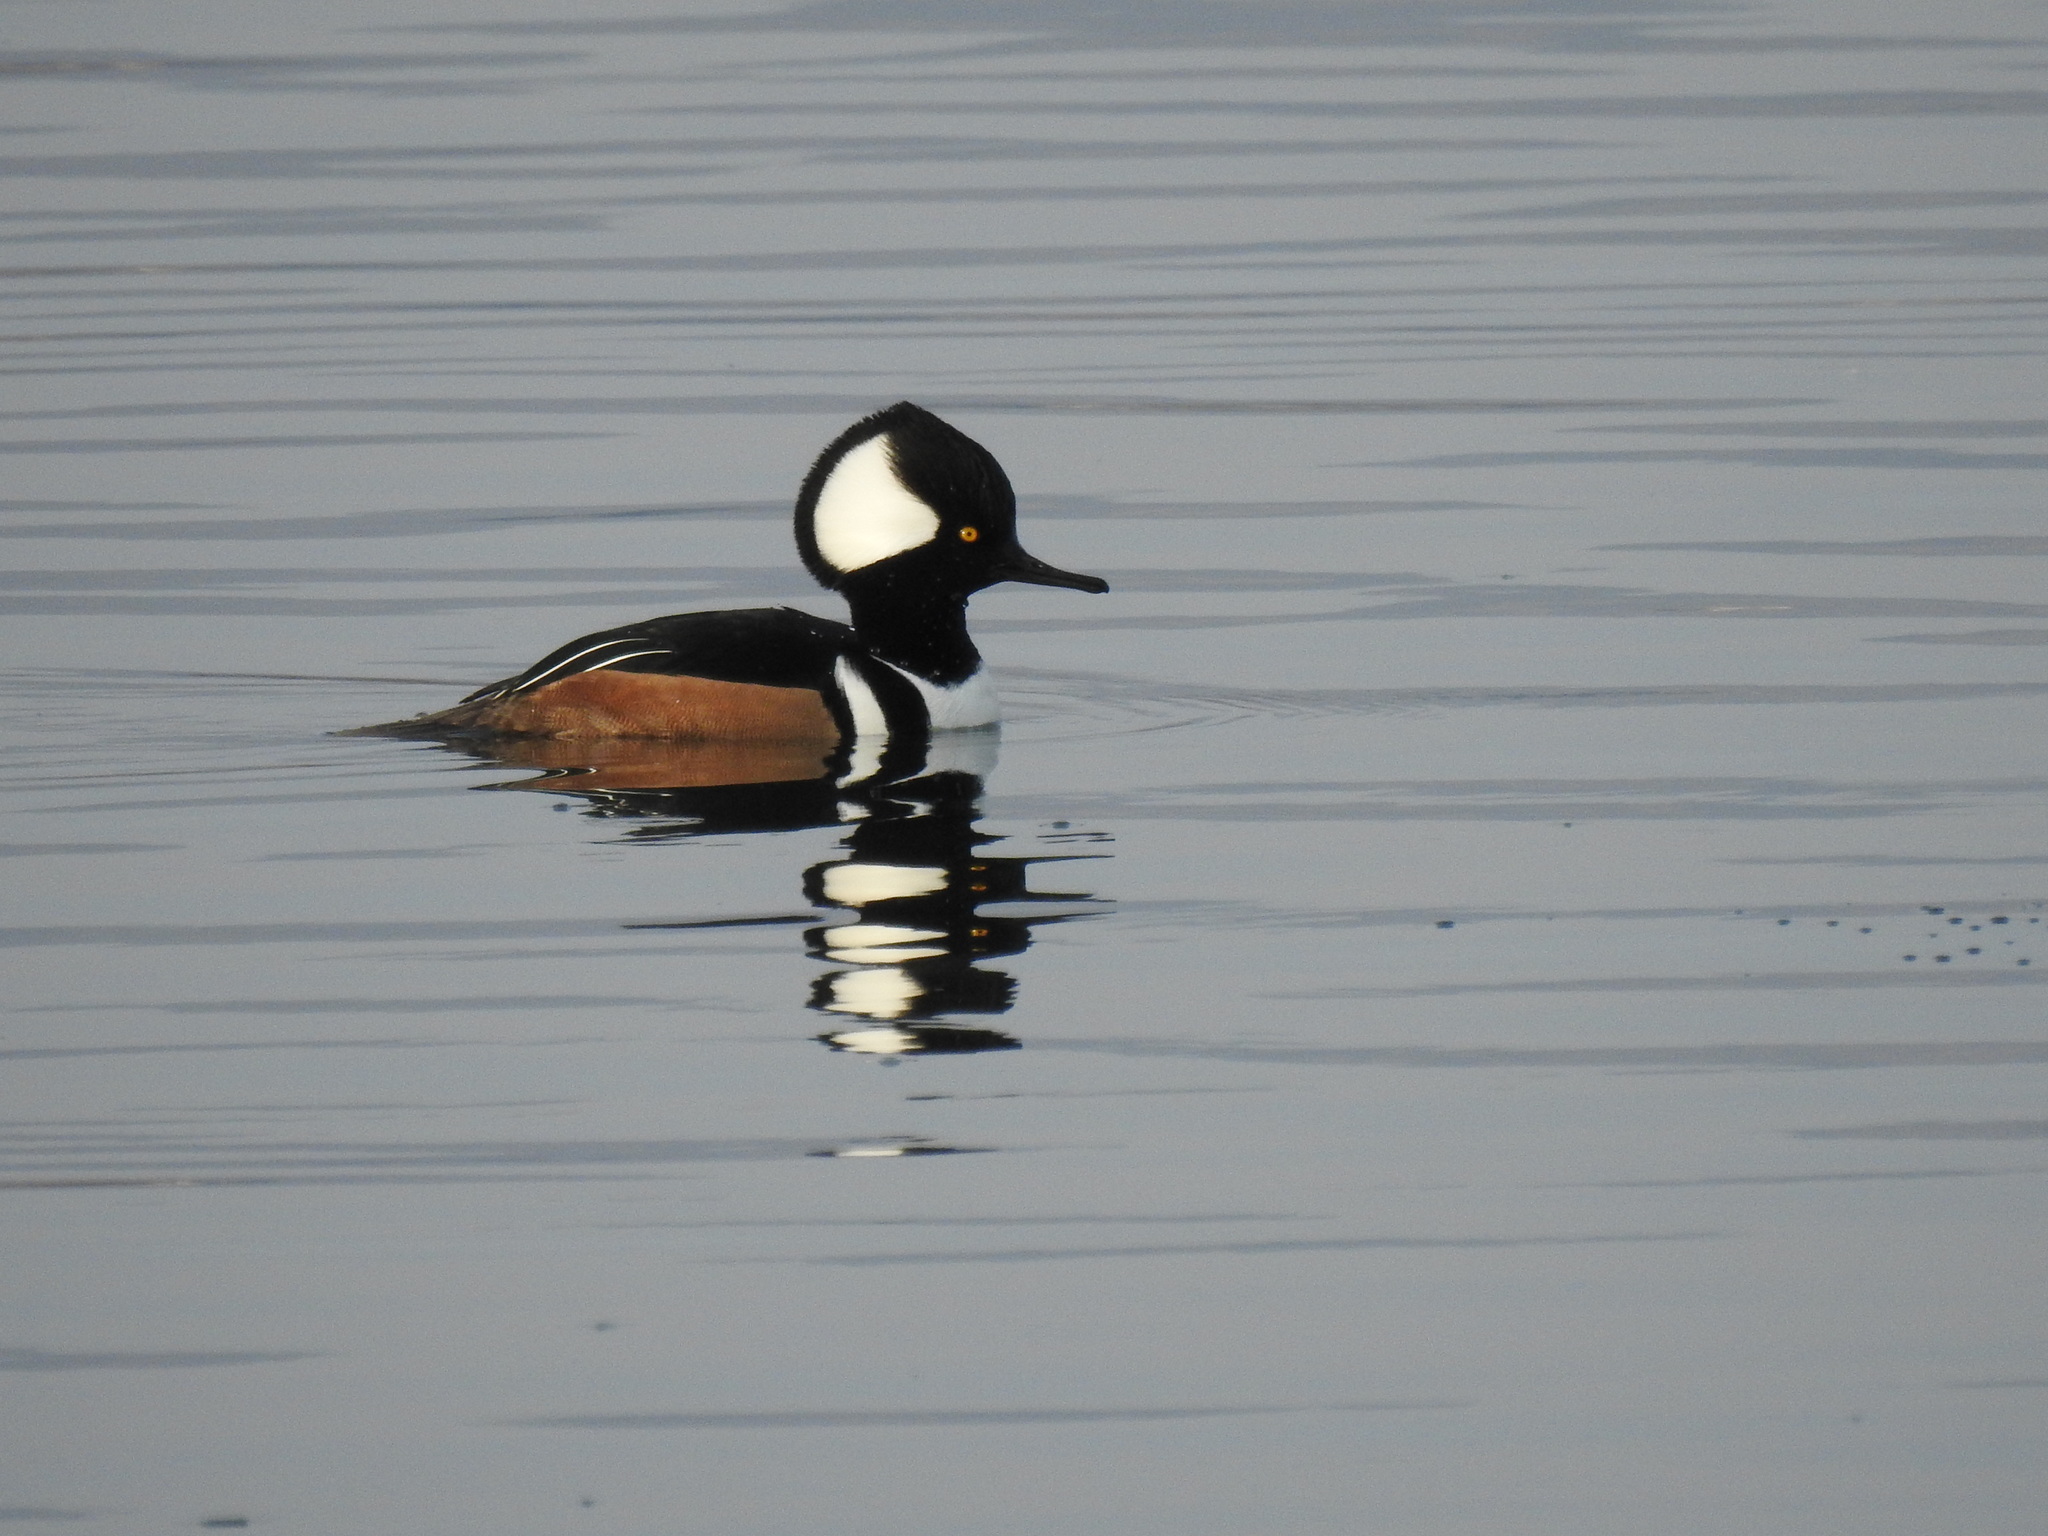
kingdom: Animalia
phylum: Chordata
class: Aves
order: Anseriformes
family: Anatidae
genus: Lophodytes
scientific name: Lophodytes cucullatus
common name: Hooded merganser
